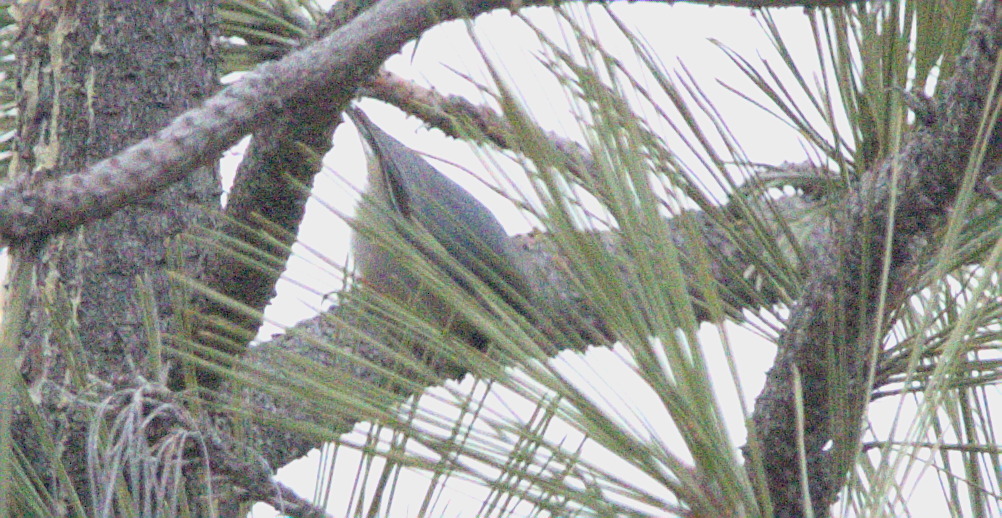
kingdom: Animalia
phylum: Chordata
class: Aves
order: Passeriformes
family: Sittidae
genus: Sitta
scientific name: Sitta pygmaea
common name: Pygmy nuthatch
